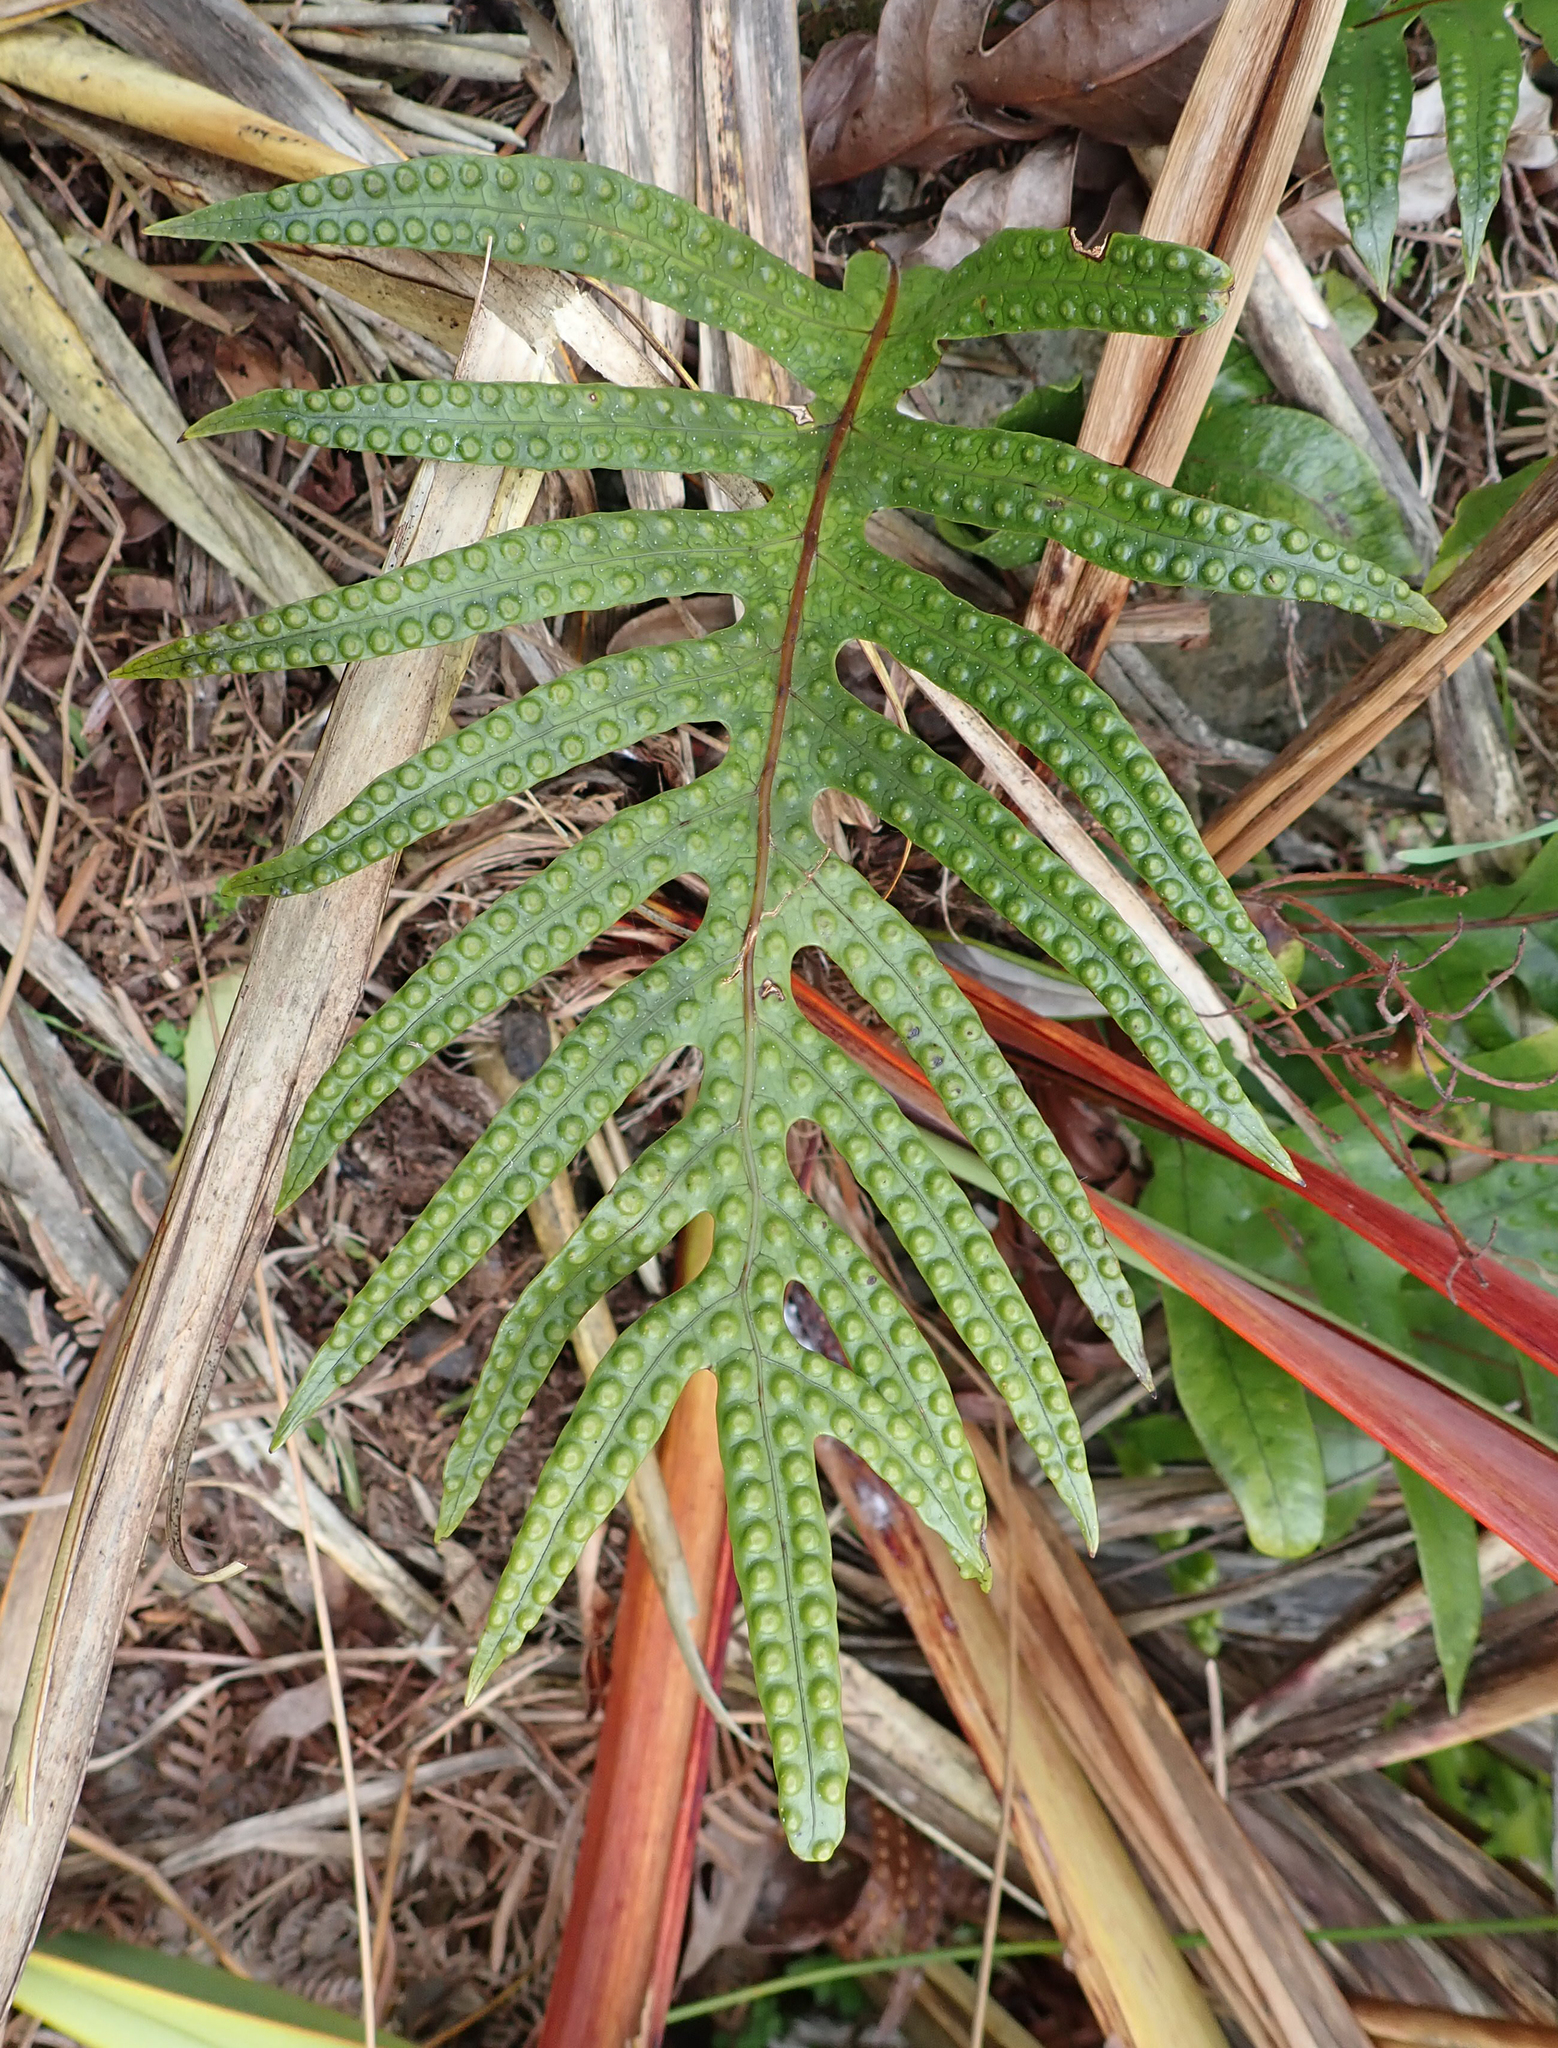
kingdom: Plantae
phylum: Tracheophyta
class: Polypodiopsida
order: Polypodiales
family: Polypodiaceae
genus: Lecanopteris
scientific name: Lecanopteris pustulata
